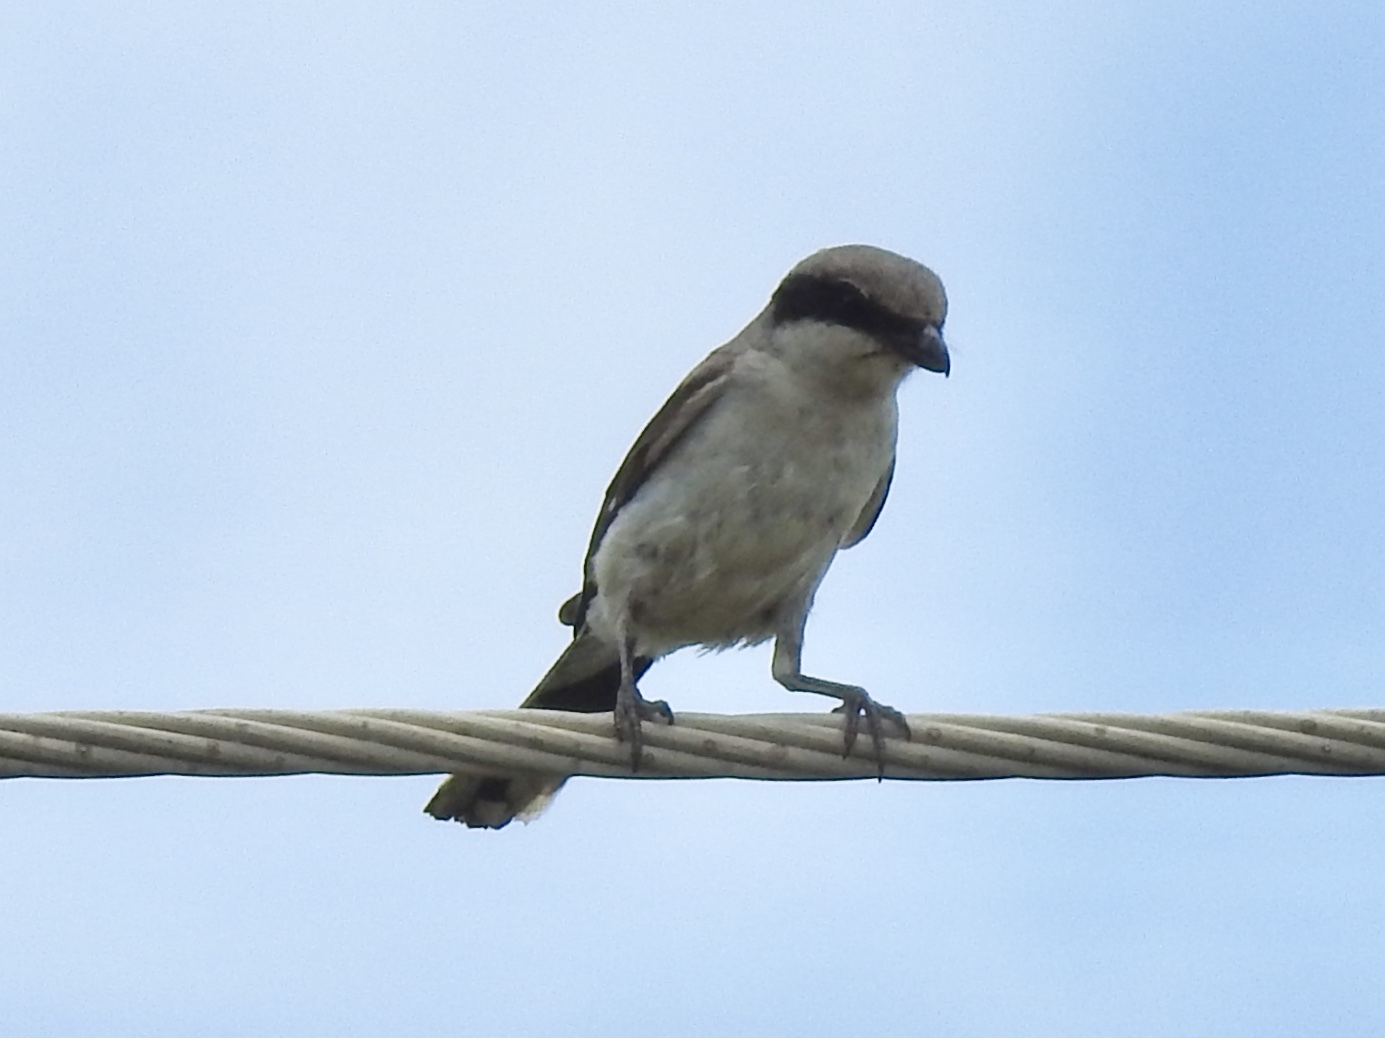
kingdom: Animalia
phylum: Chordata
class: Aves
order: Passeriformes
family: Laniidae
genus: Lanius
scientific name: Lanius ludovicianus
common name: Loggerhead shrike
